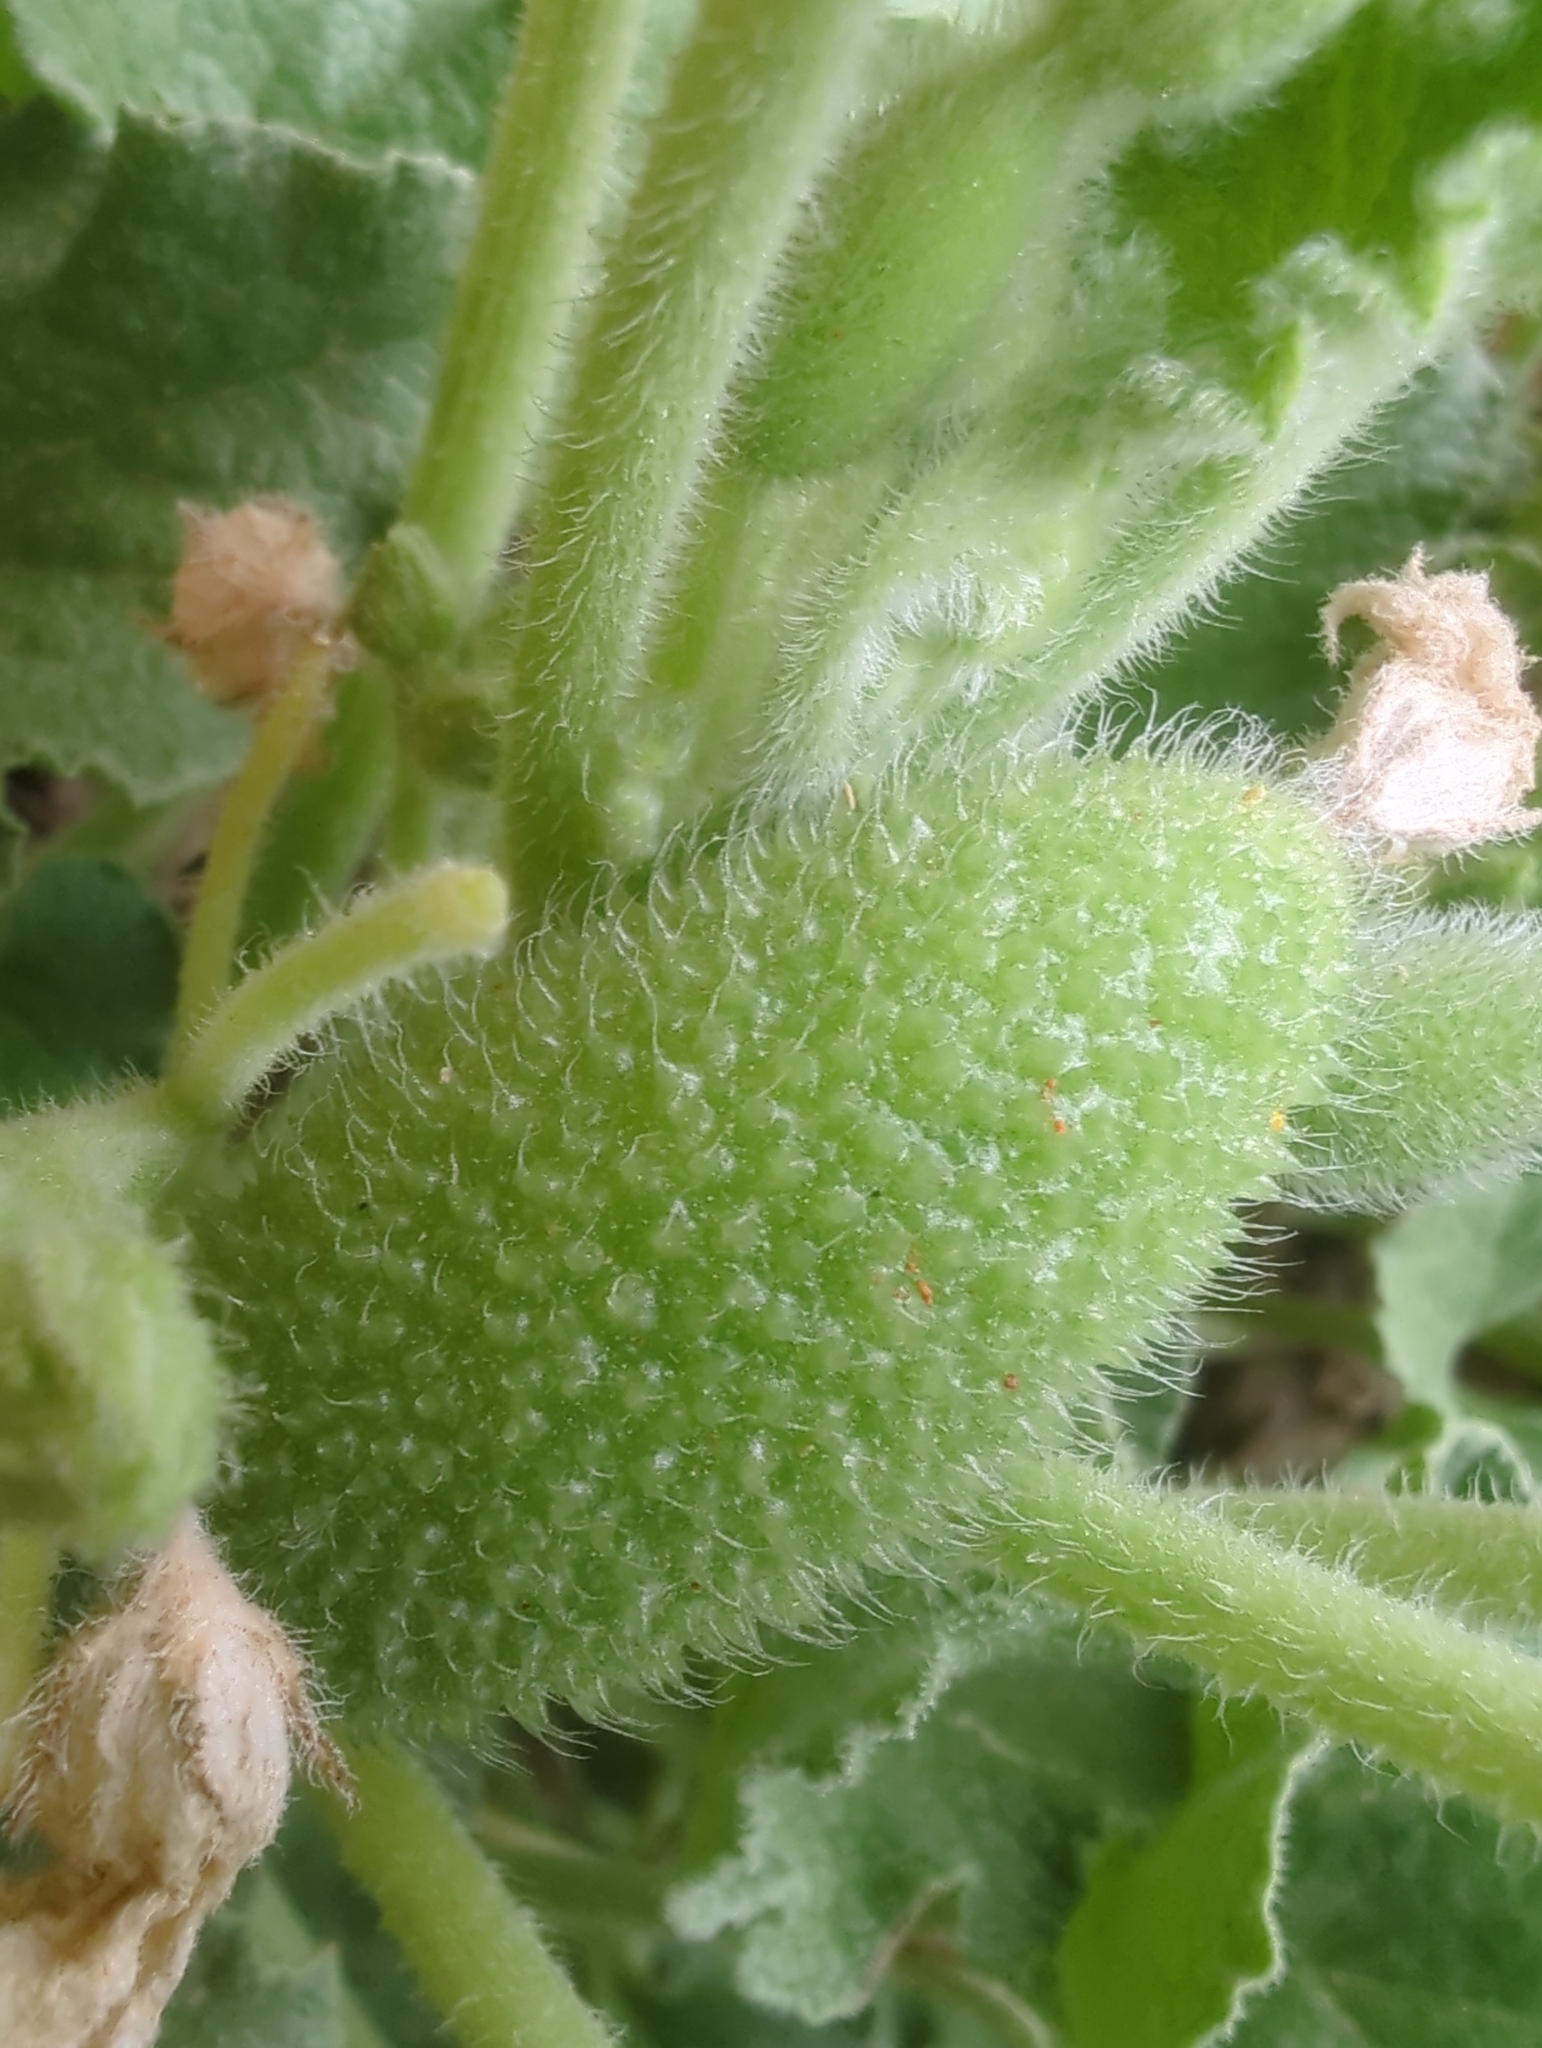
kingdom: Plantae
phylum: Tracheophyta
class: Magnoliopsida
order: Cucurbitales
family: Cucurbitaceae
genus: Ecballium
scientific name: Ecballium elaterium
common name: Squirting cucumber
